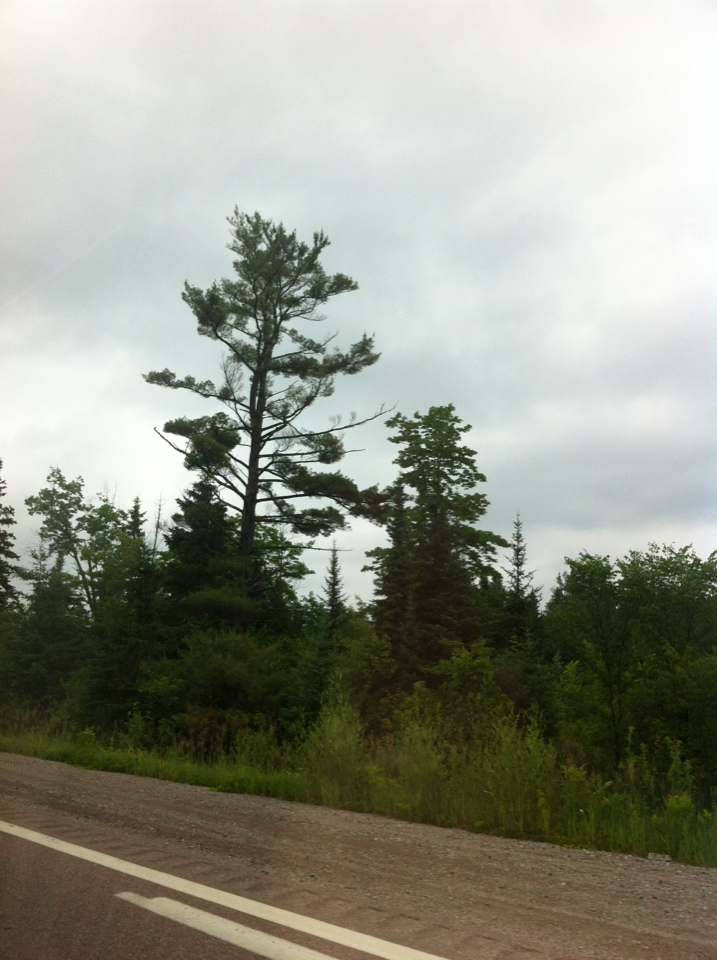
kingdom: Plantae
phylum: Tracheophyta
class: Pinopsida
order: Pinales
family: Pinaceae
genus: Abies
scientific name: Abies balsamea
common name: Balsam fir
